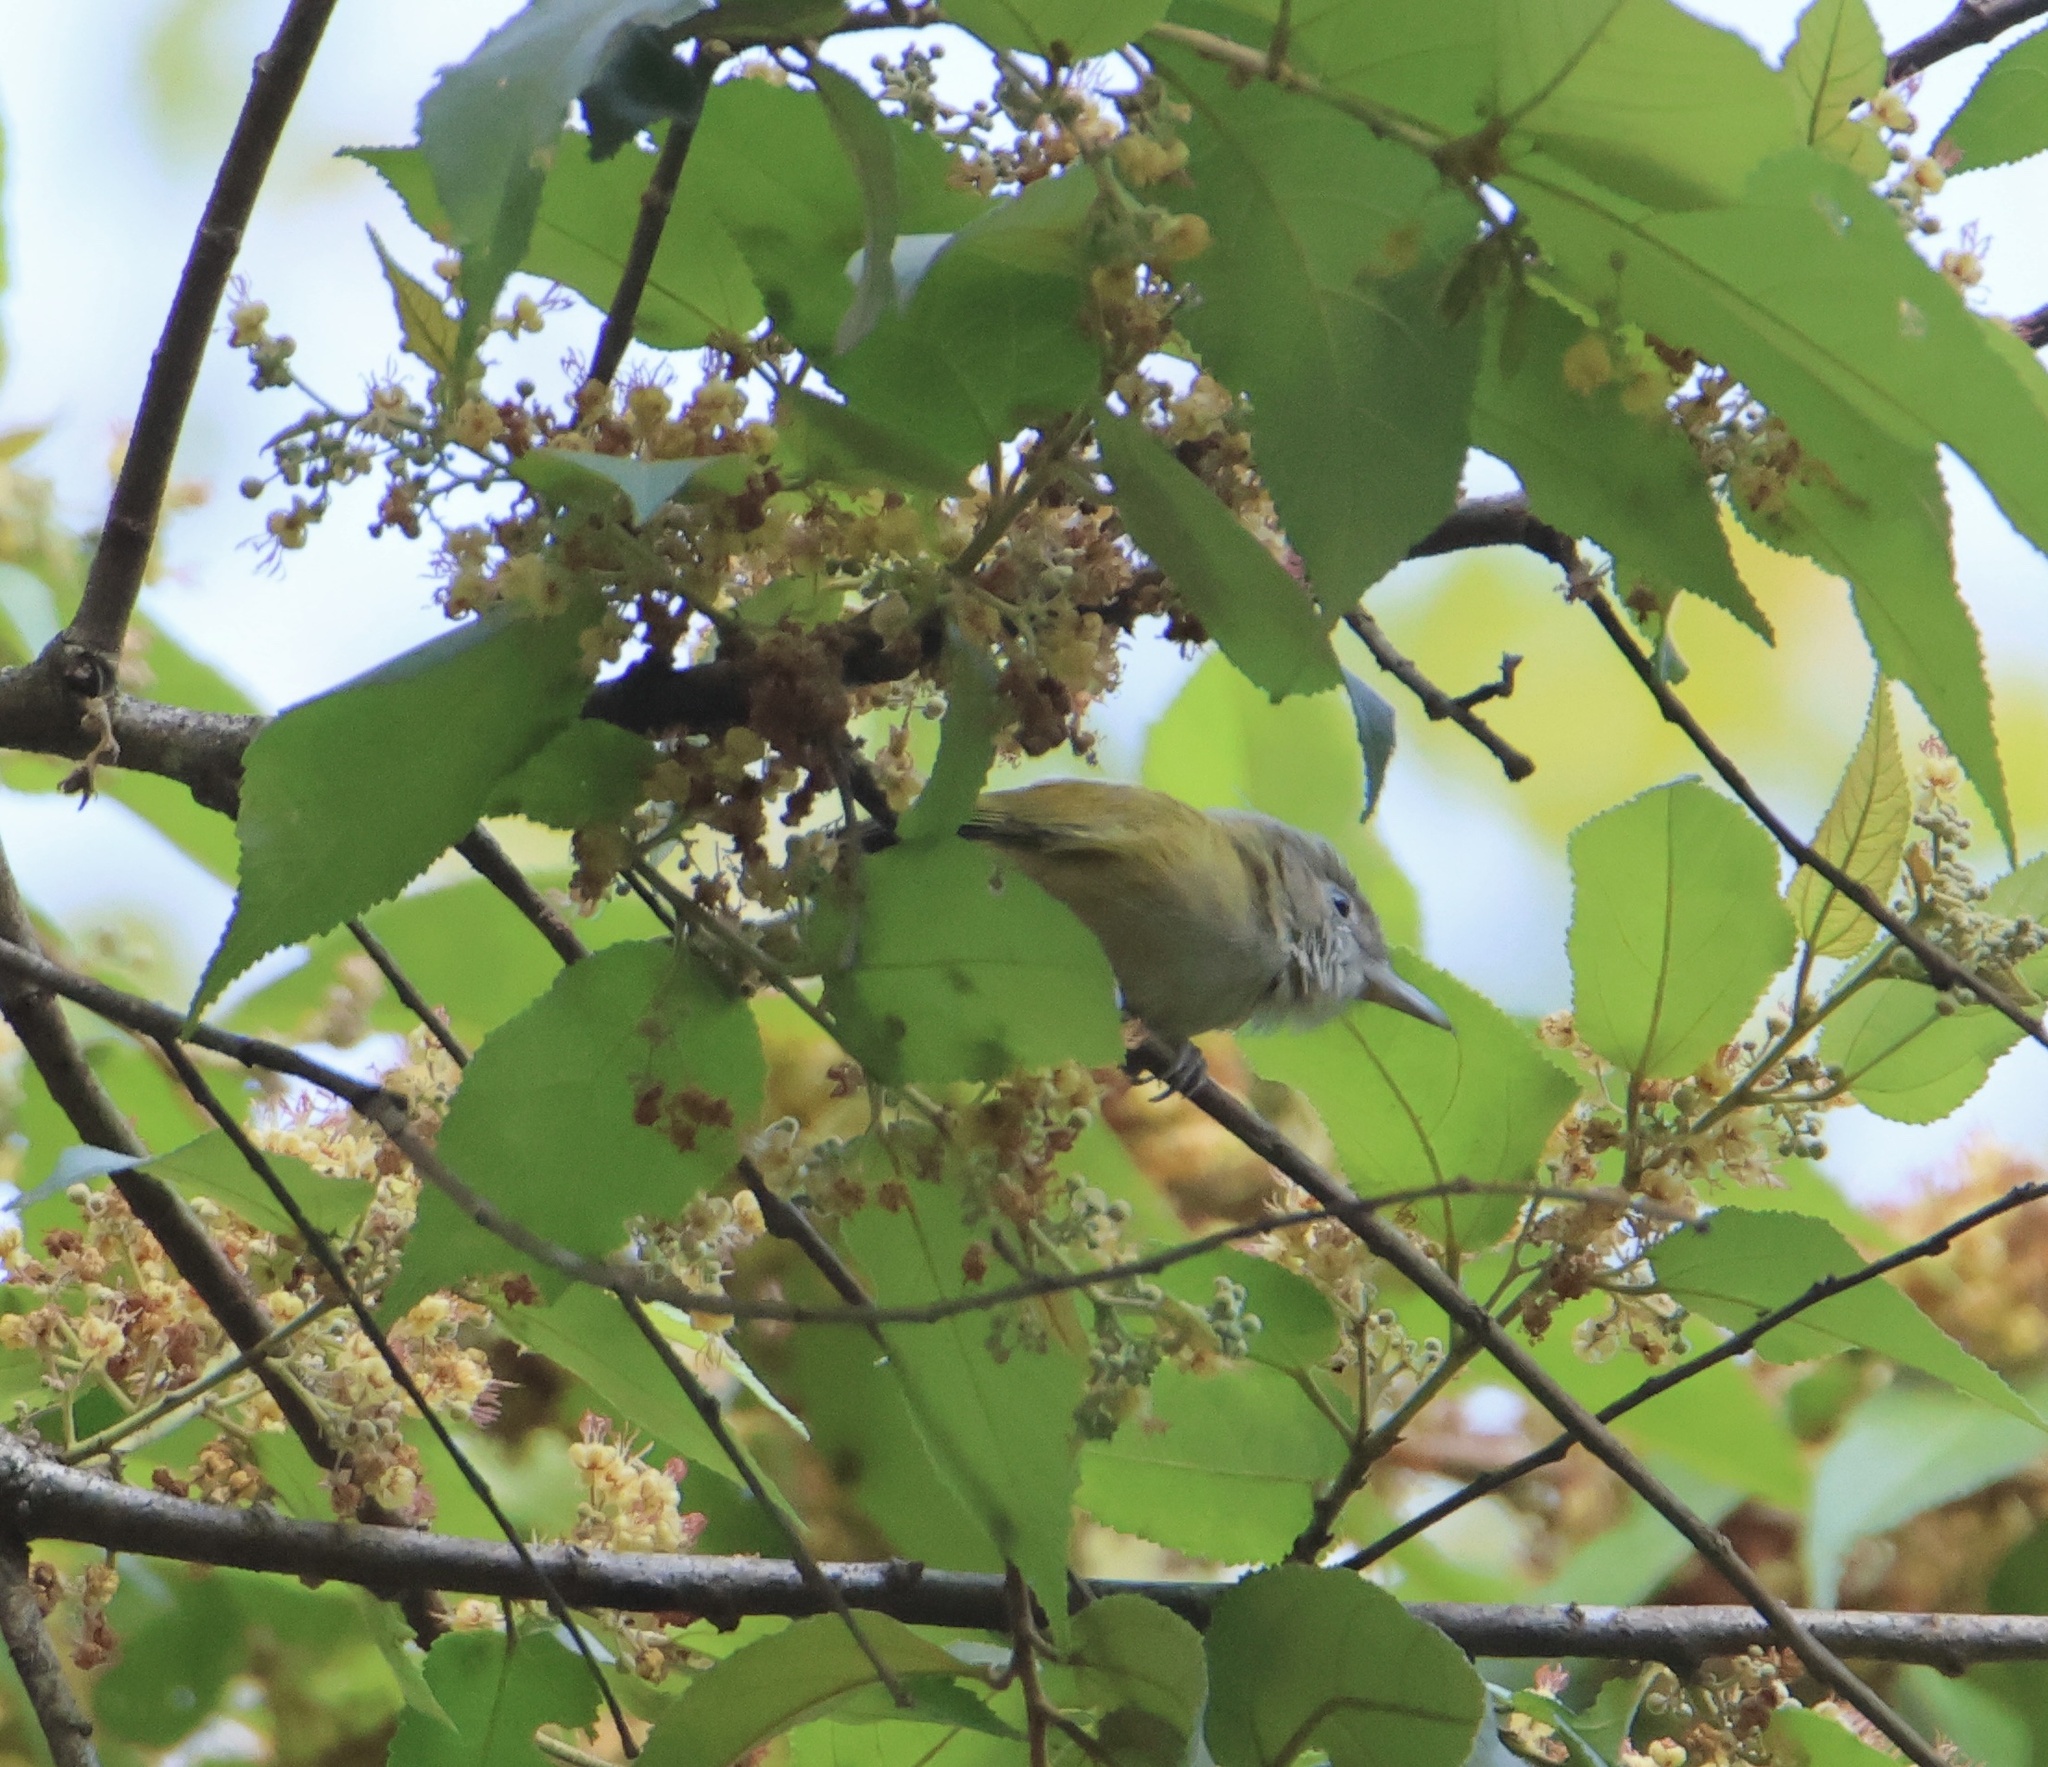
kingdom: Animalia
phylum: Chordata
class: Aves
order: Passeriformes
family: Vireonidae
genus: Hylophilus
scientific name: Hylophilus decurtatus
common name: Lesser greenlet
